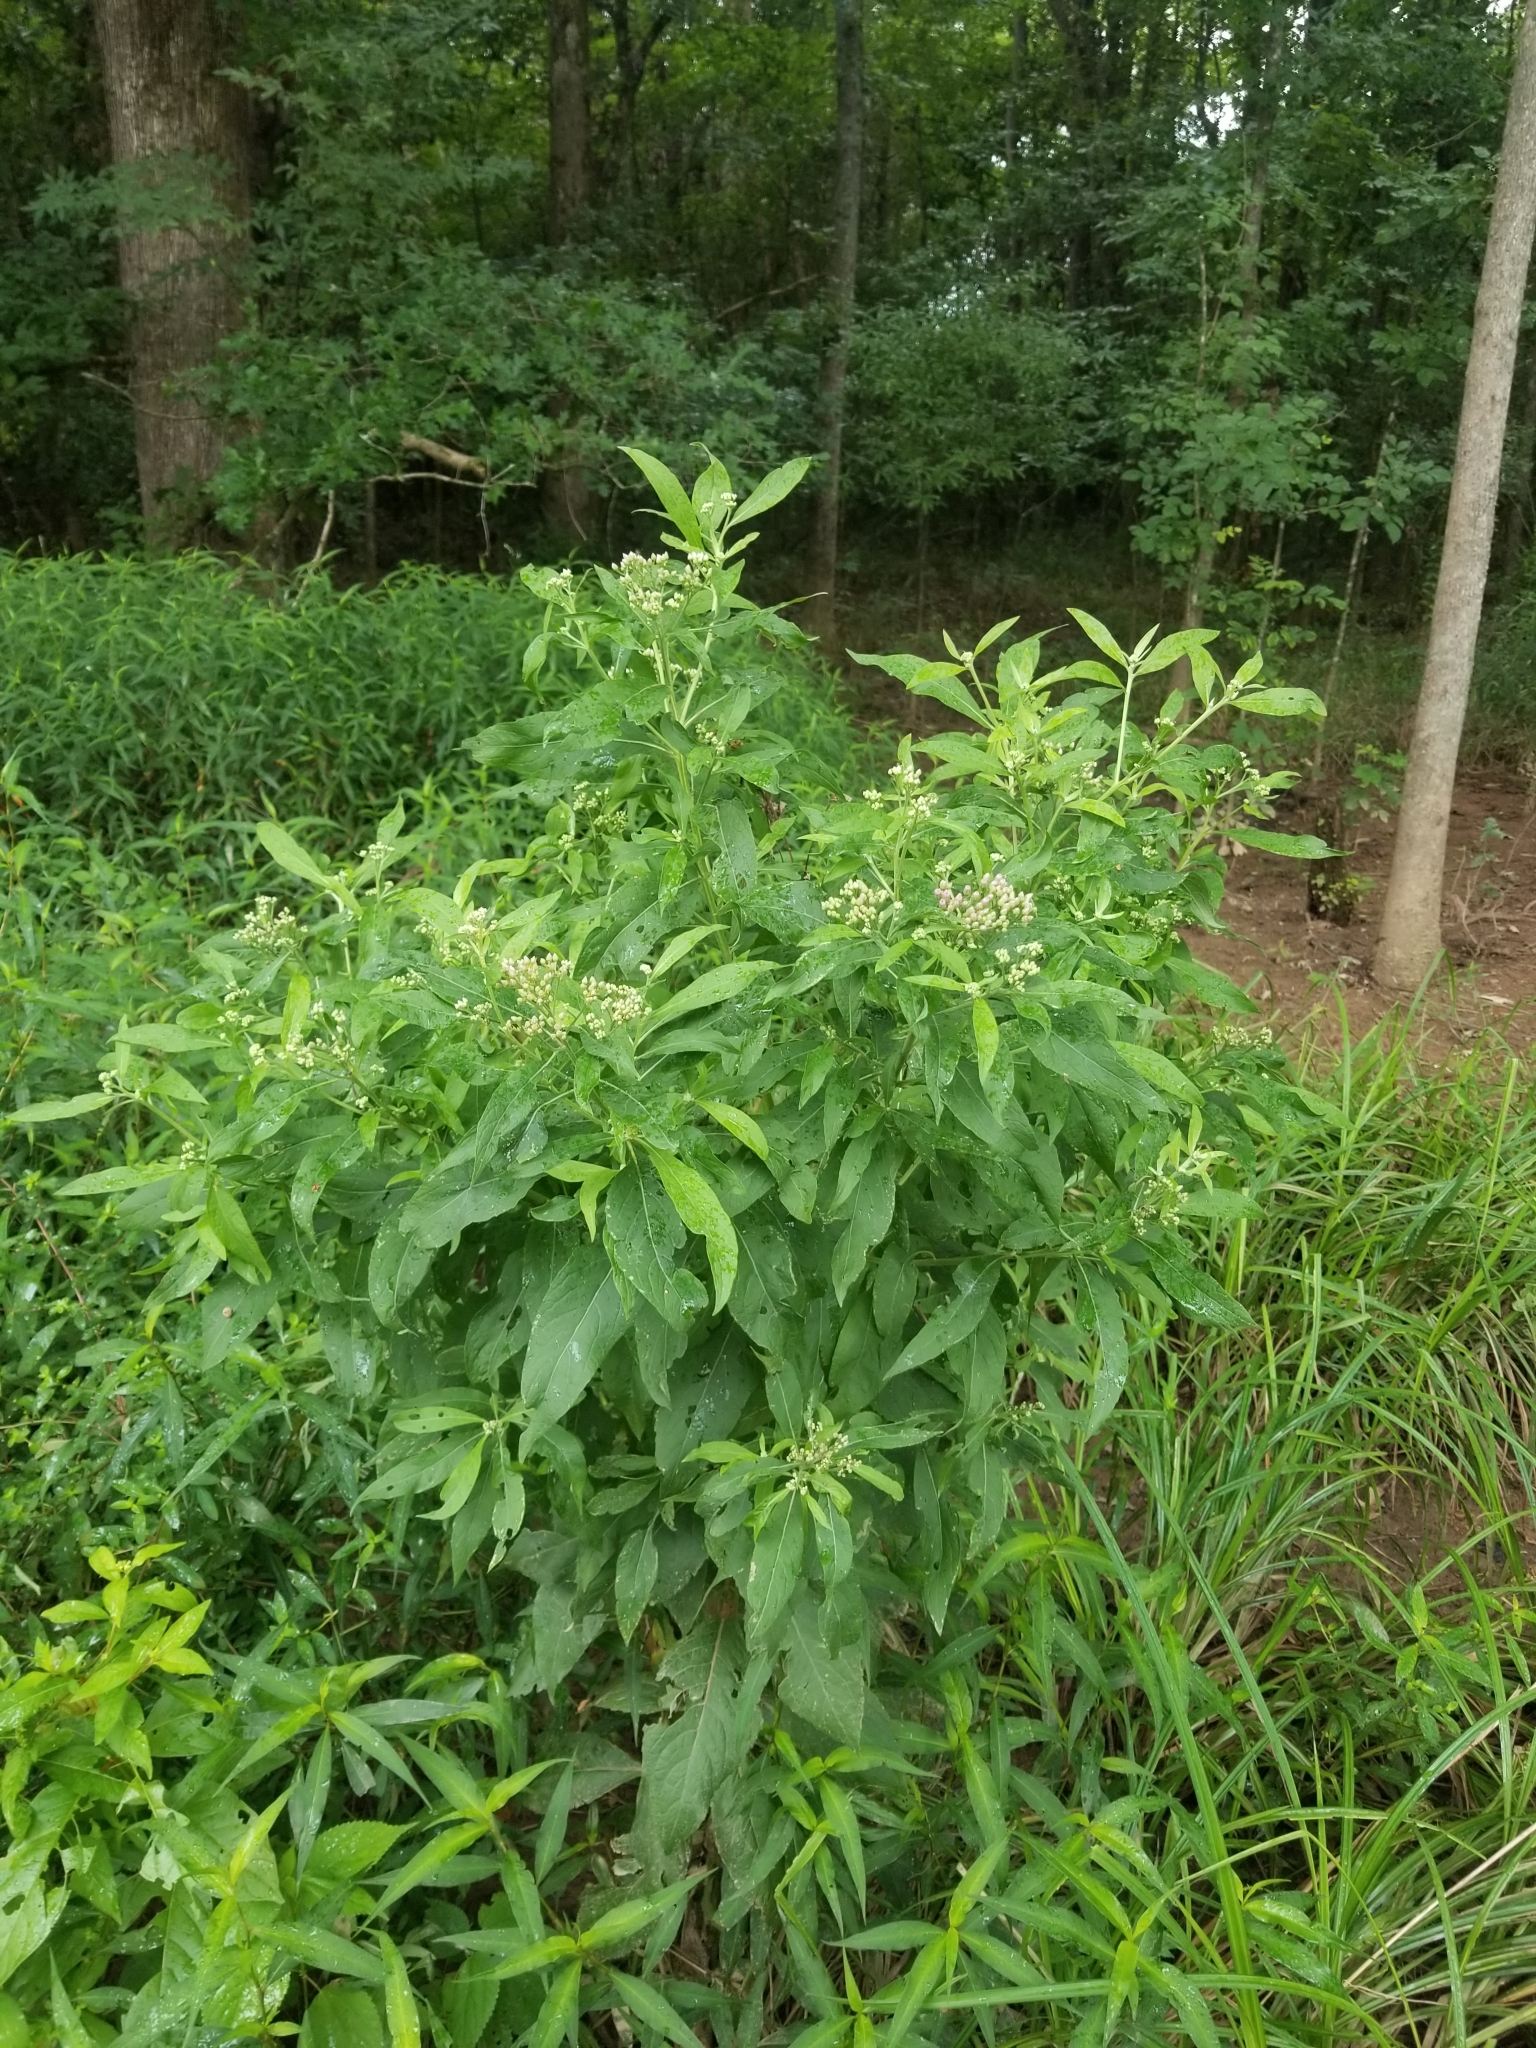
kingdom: Plantae
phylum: Tracheophyta
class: Magnoliopsida
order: Asterales
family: Asteraceae
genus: Pluchea
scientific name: Pluchea camphorata
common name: Camphor pluchea
